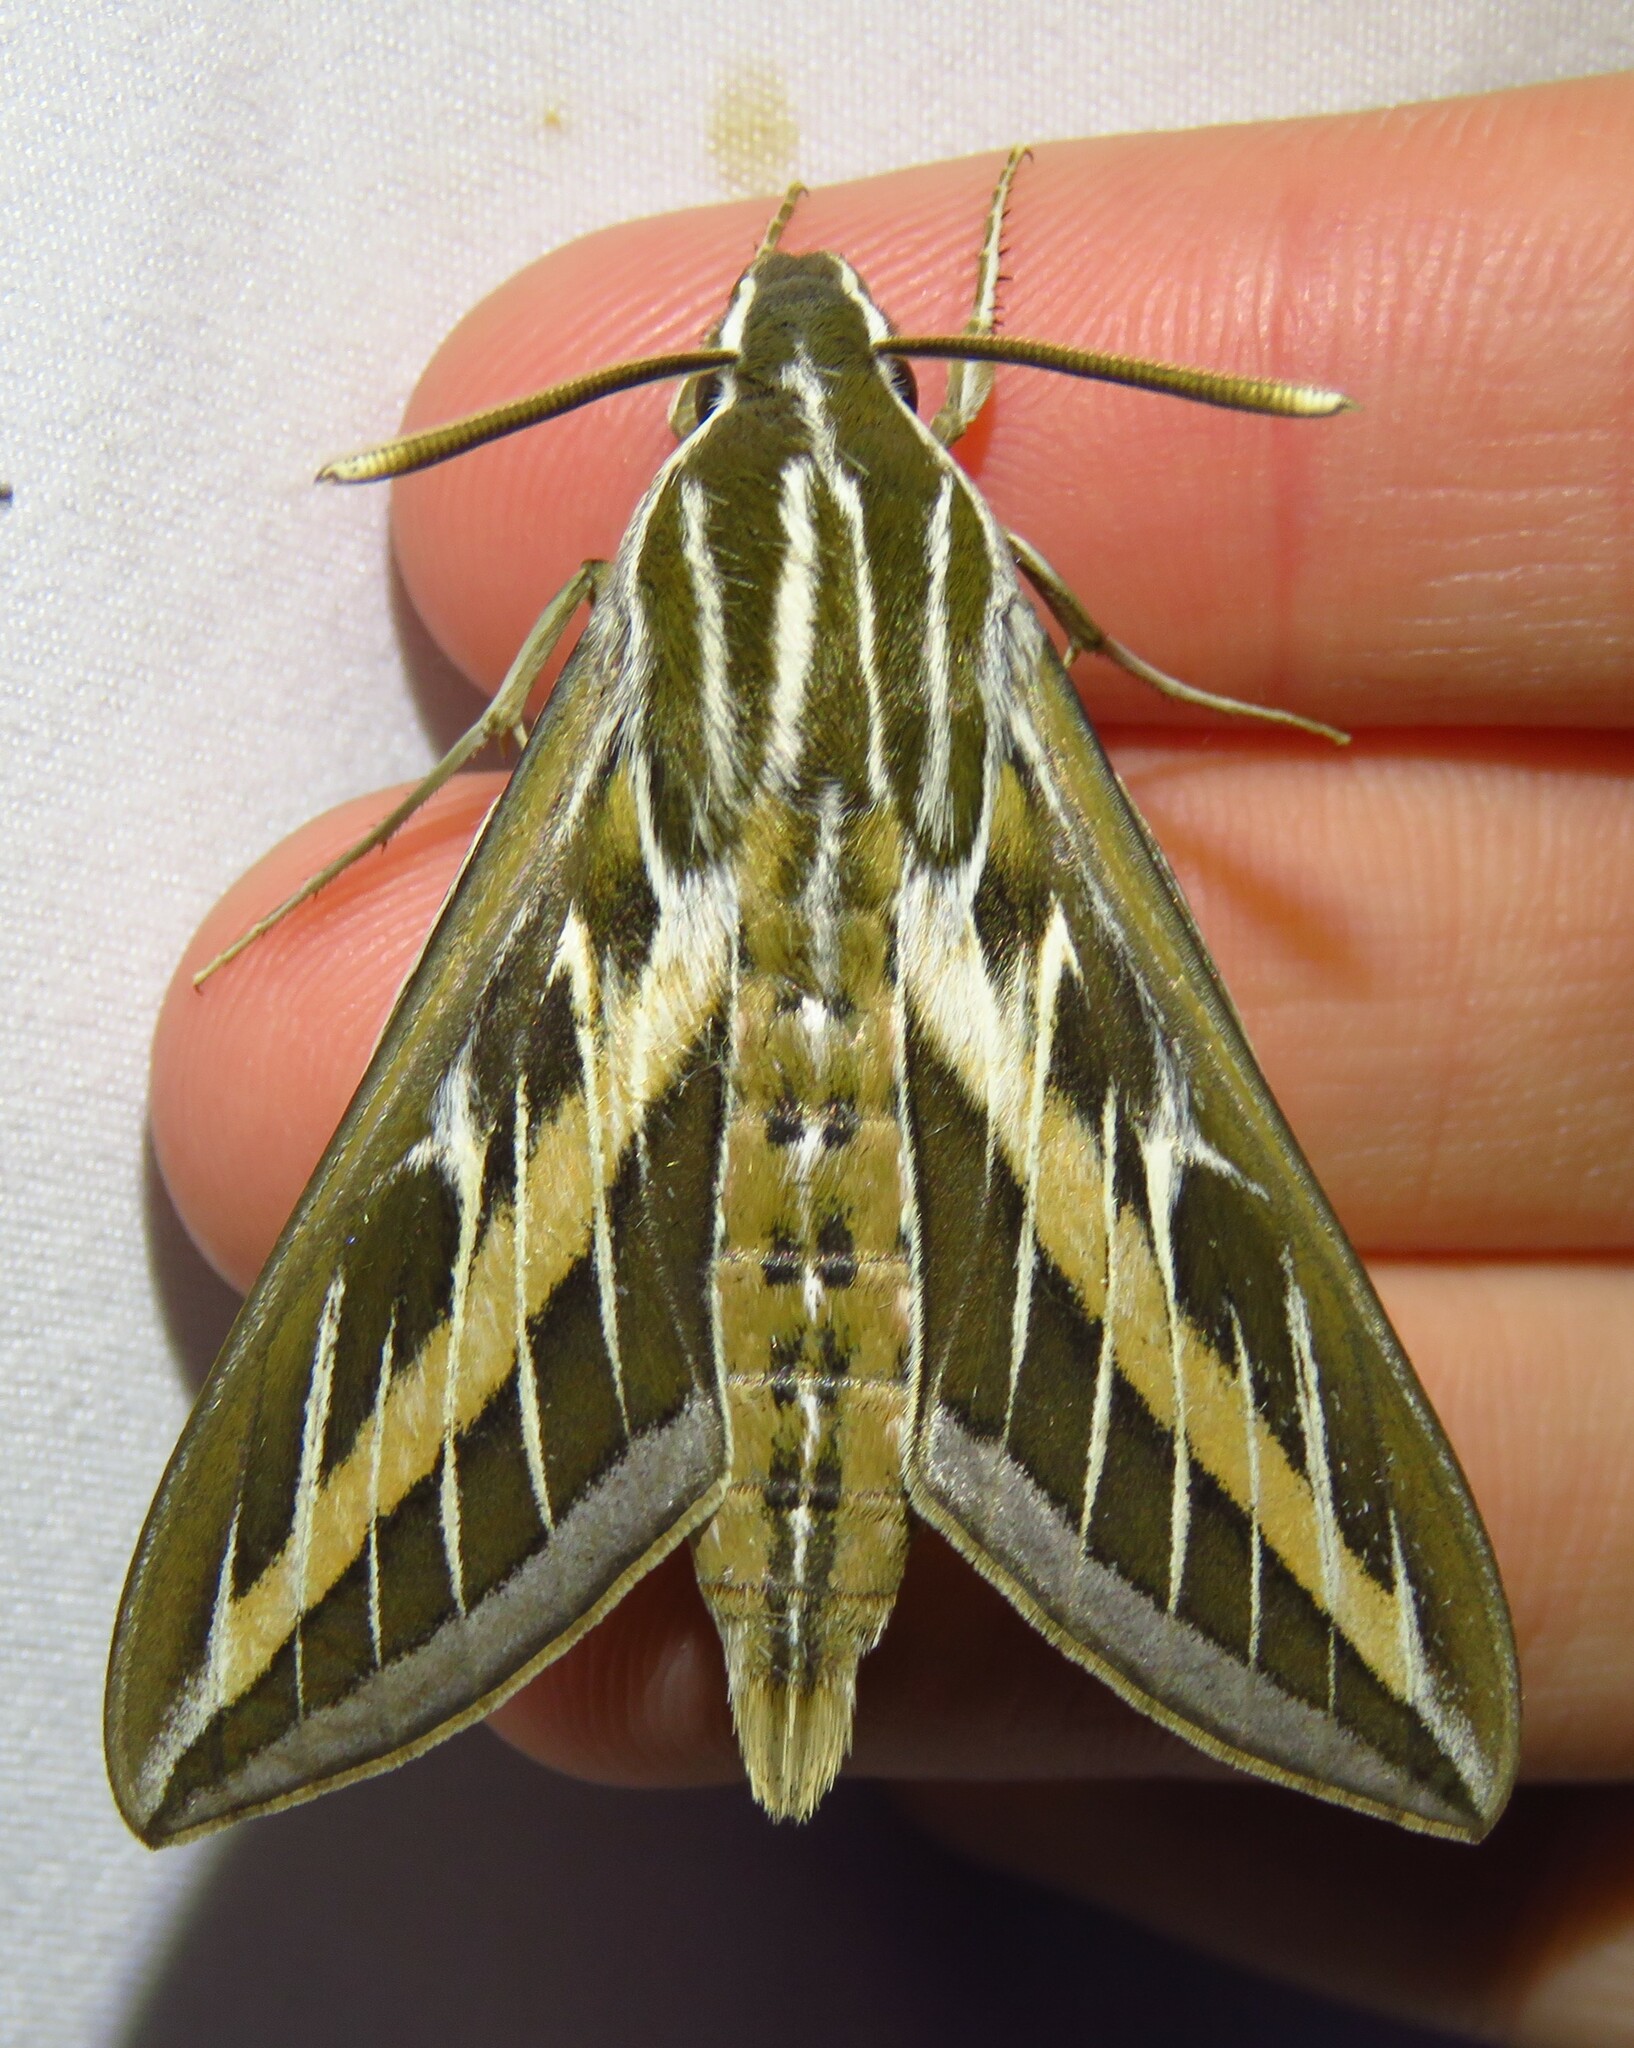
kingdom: Animalia
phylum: Arthropoda
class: Insecta
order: Lepidoptera
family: Sphingidae
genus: Hyles
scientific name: Hyles lineata
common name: White-lined sphinx
